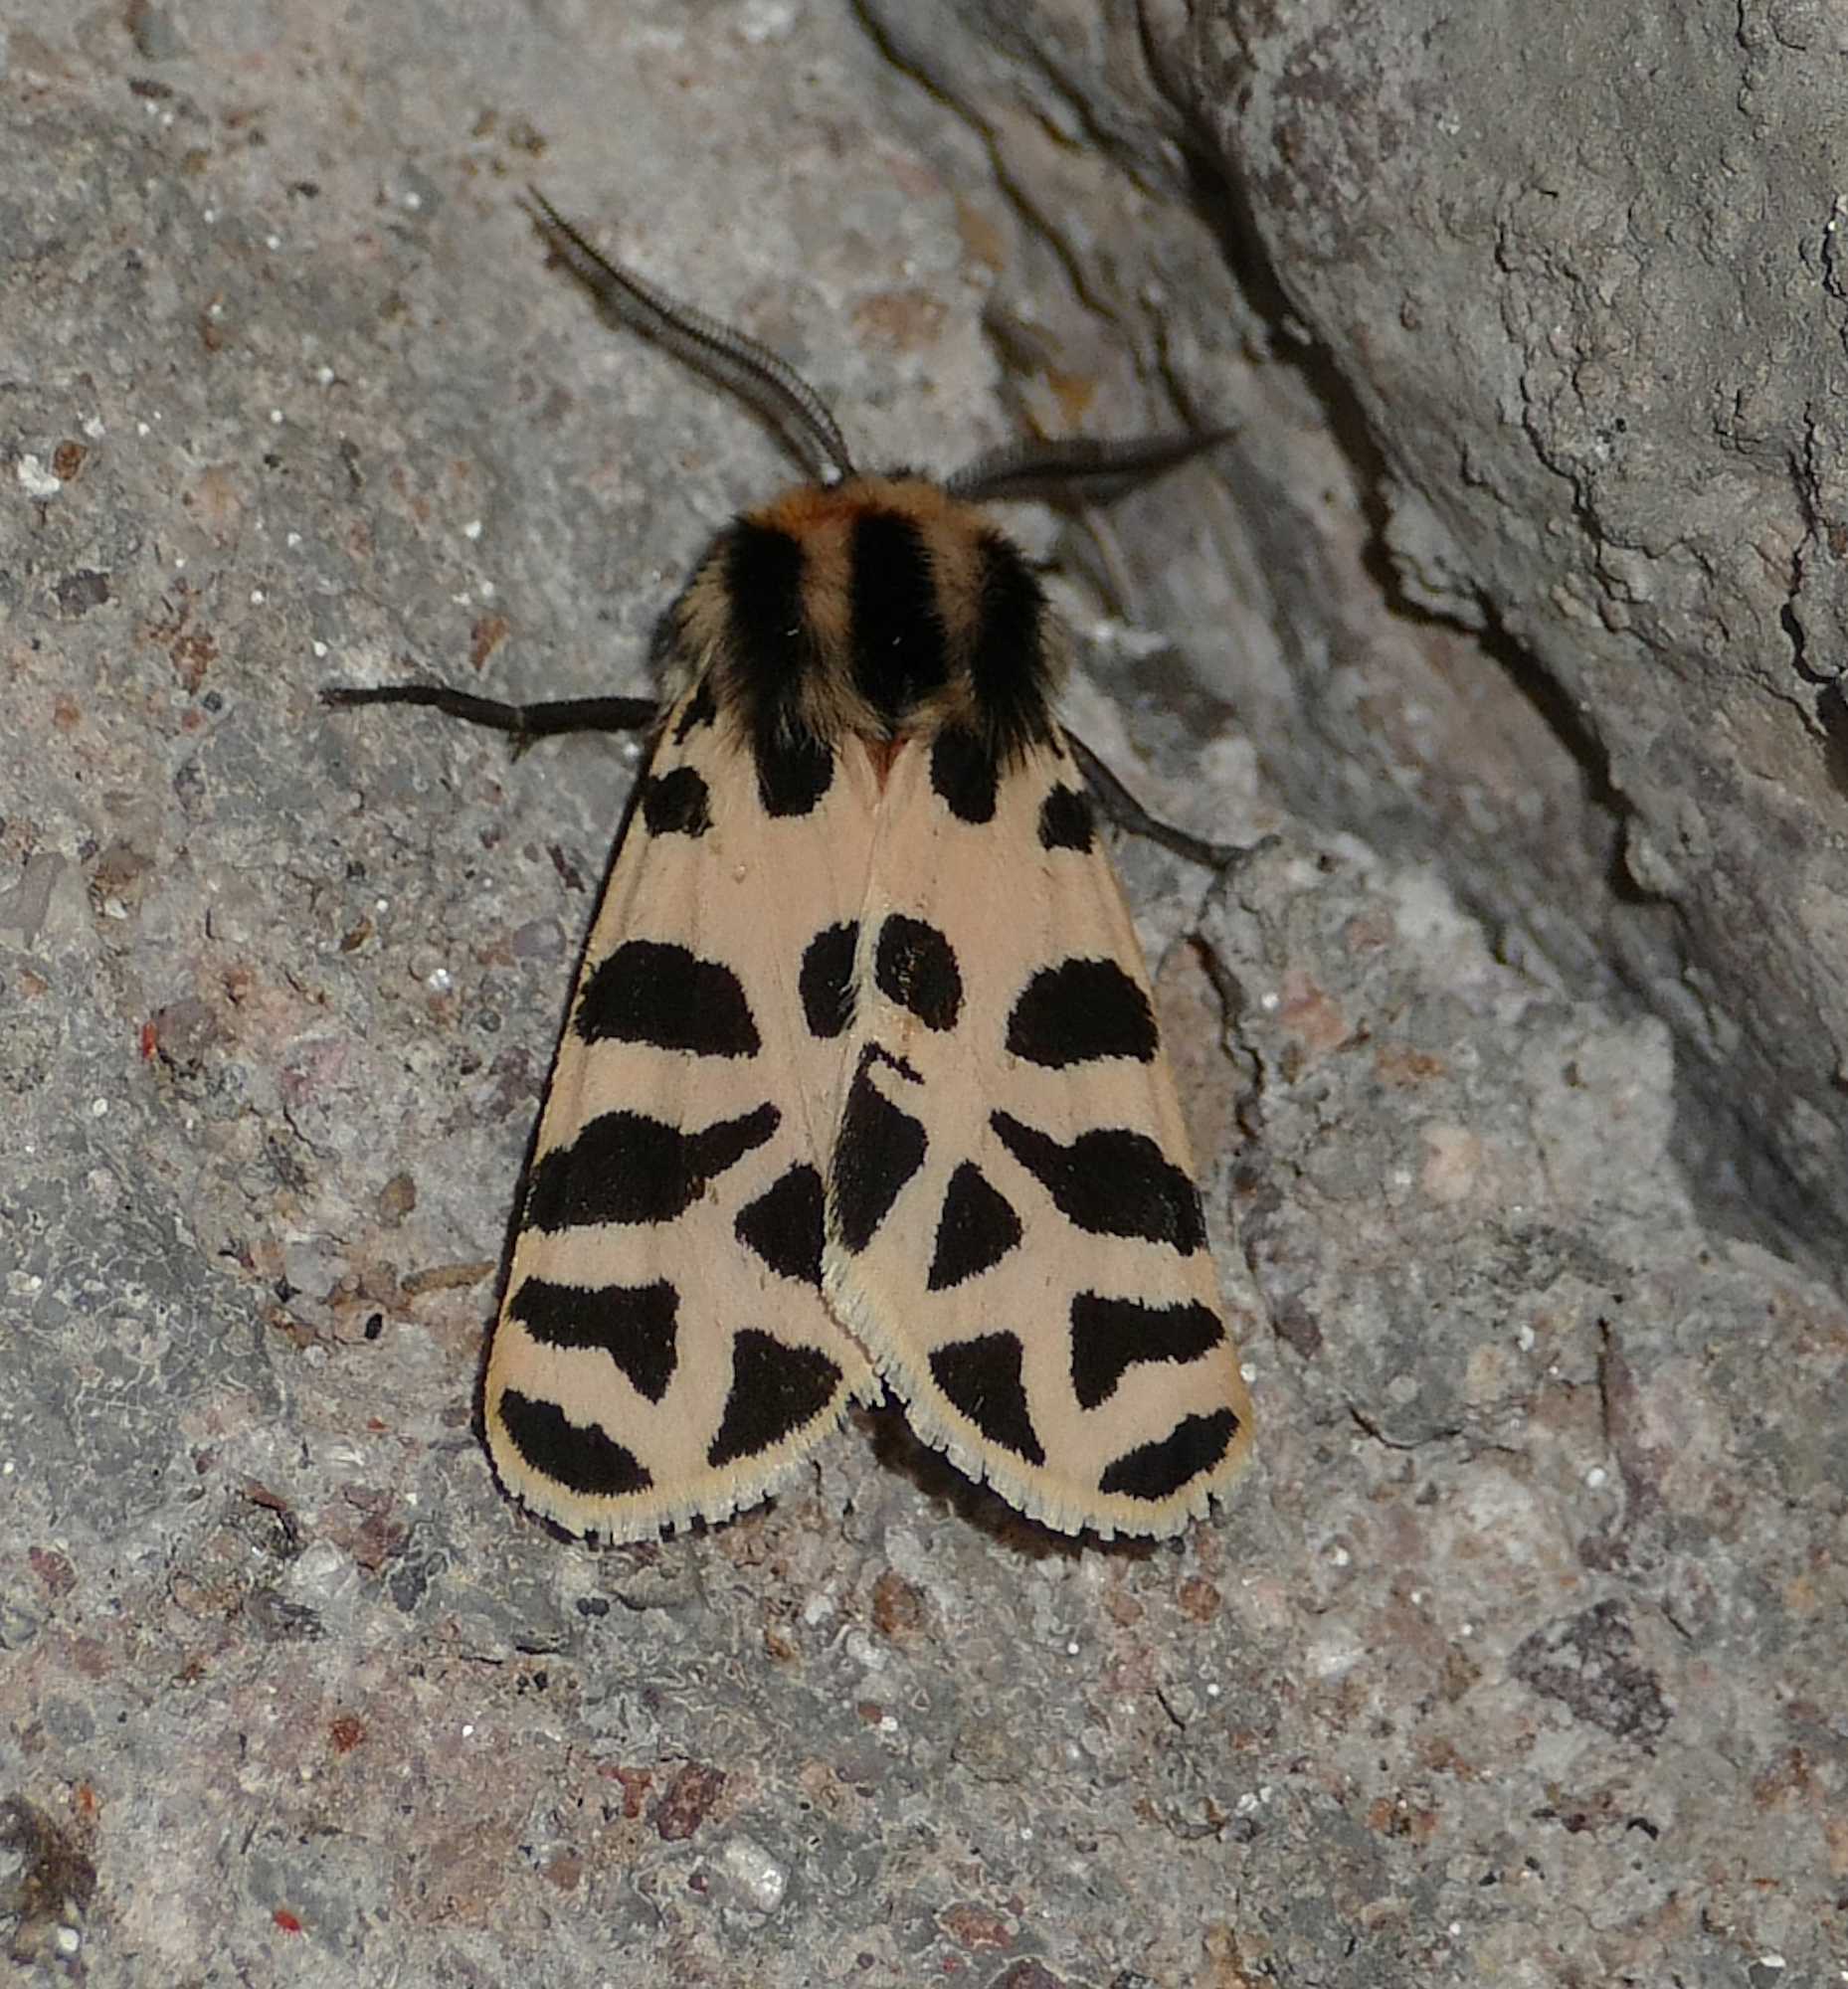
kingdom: Animalia
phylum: Arthropoda
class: Insecta
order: Lepidoptera
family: Erebidae
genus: Apantesis
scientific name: Apantesis incorrupta
